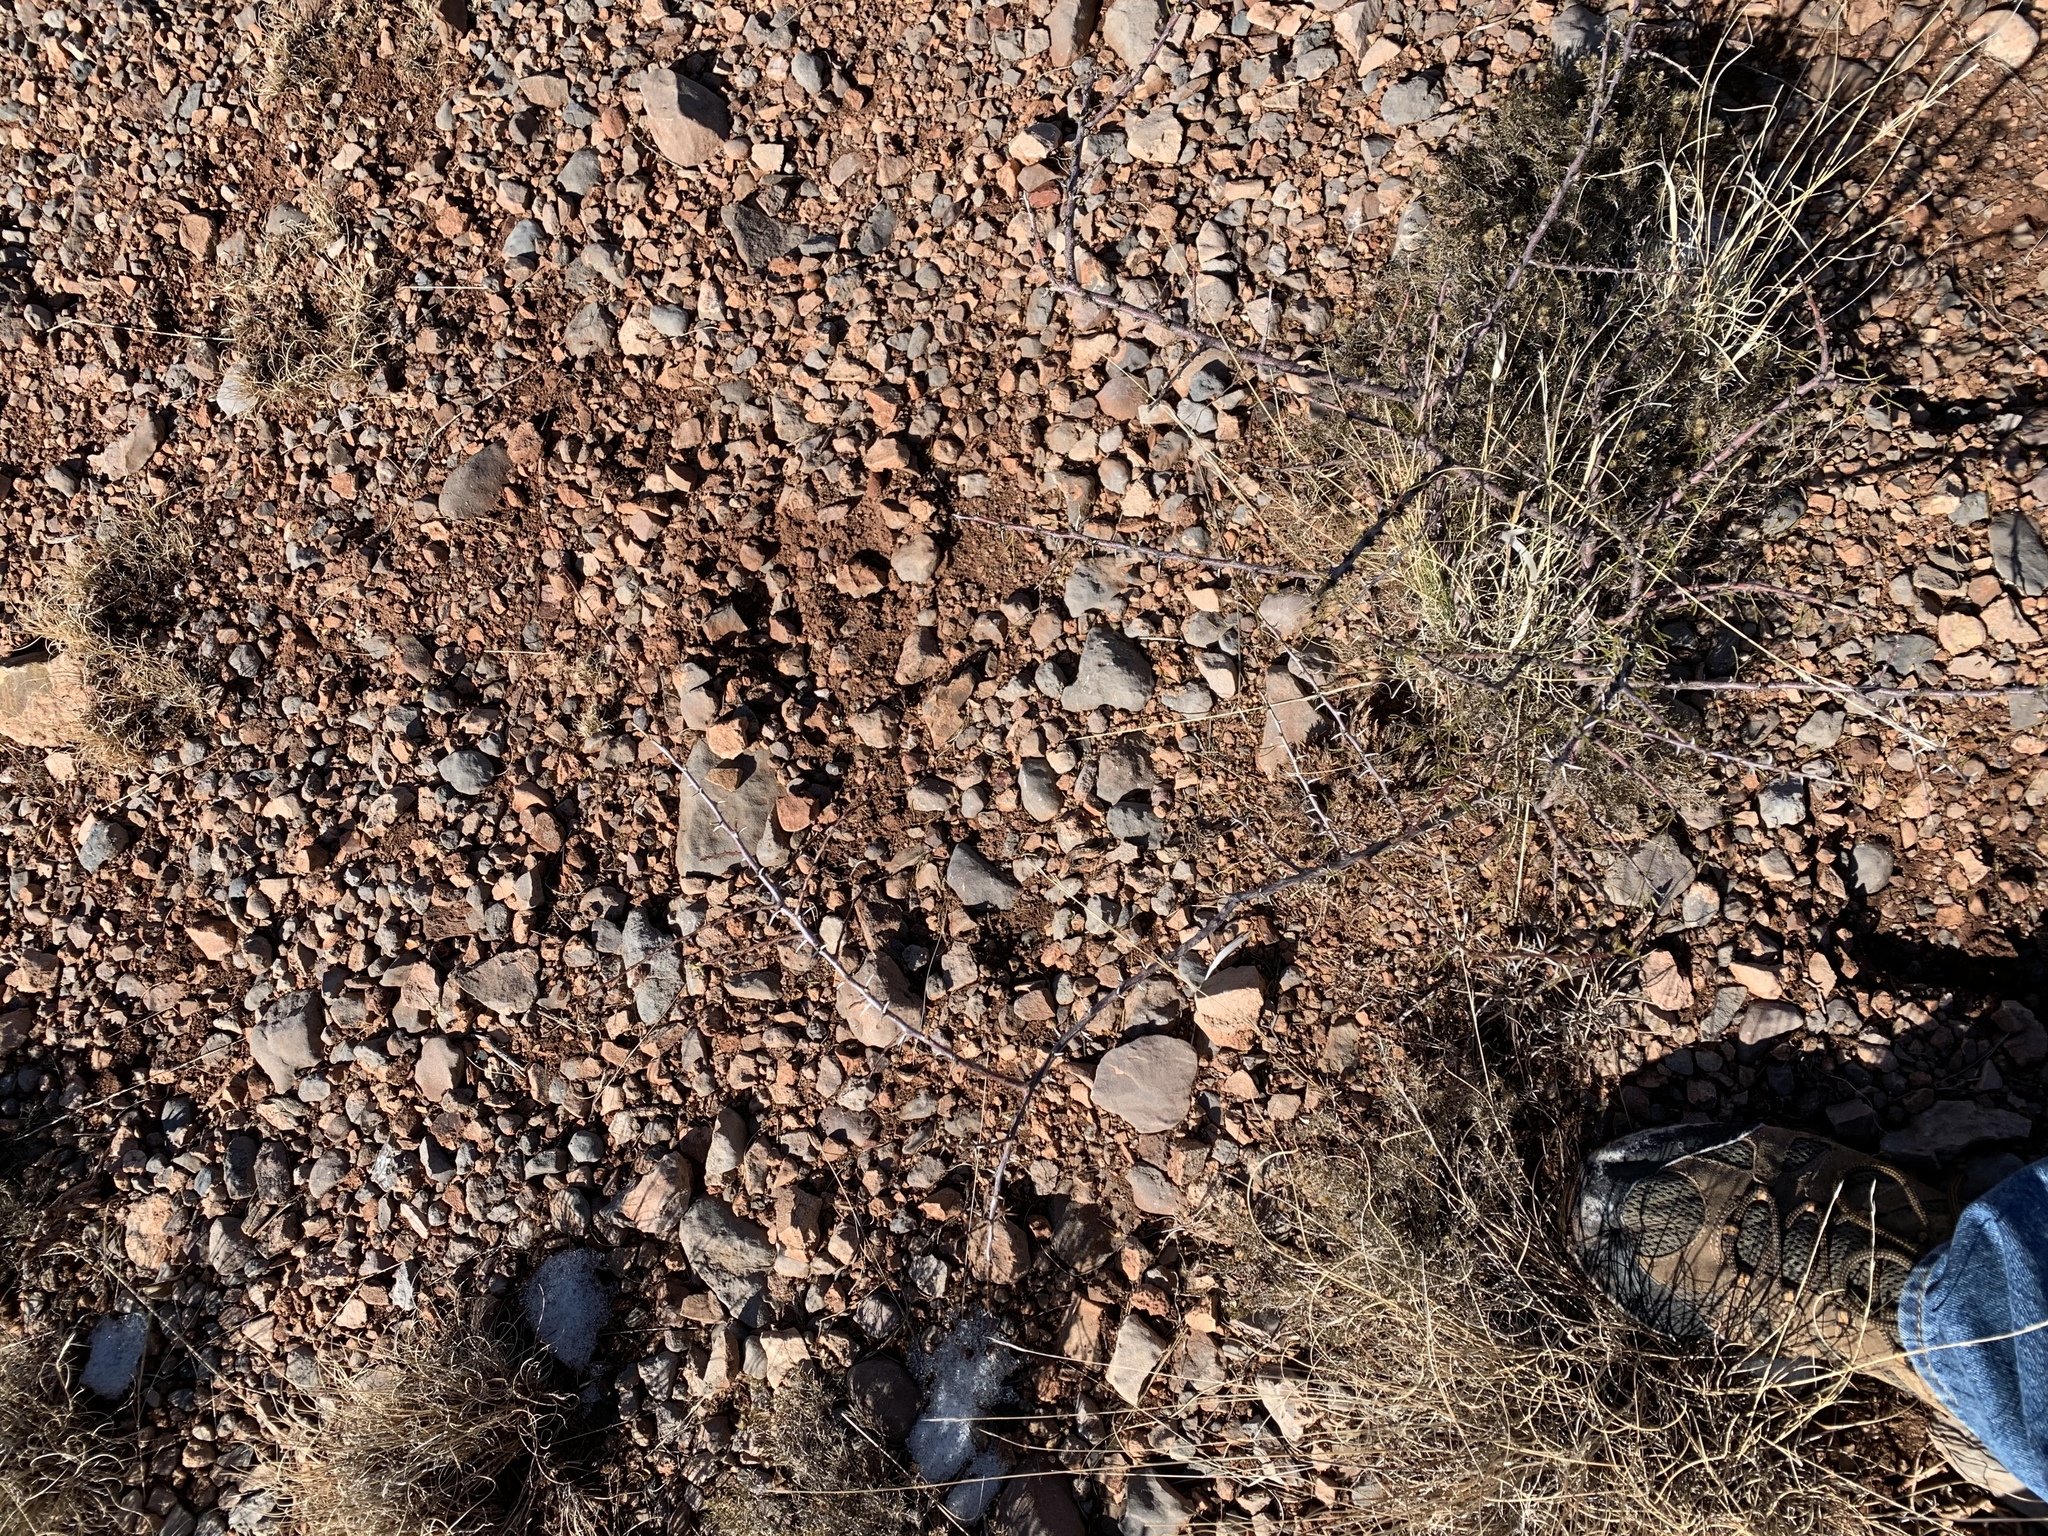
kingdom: Plantae
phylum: Tracheophyta
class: Magnoliopsida
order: Fabales
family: Fabaceae
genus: Vachellia
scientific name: Vachellia constricta
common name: Mescat acacia
